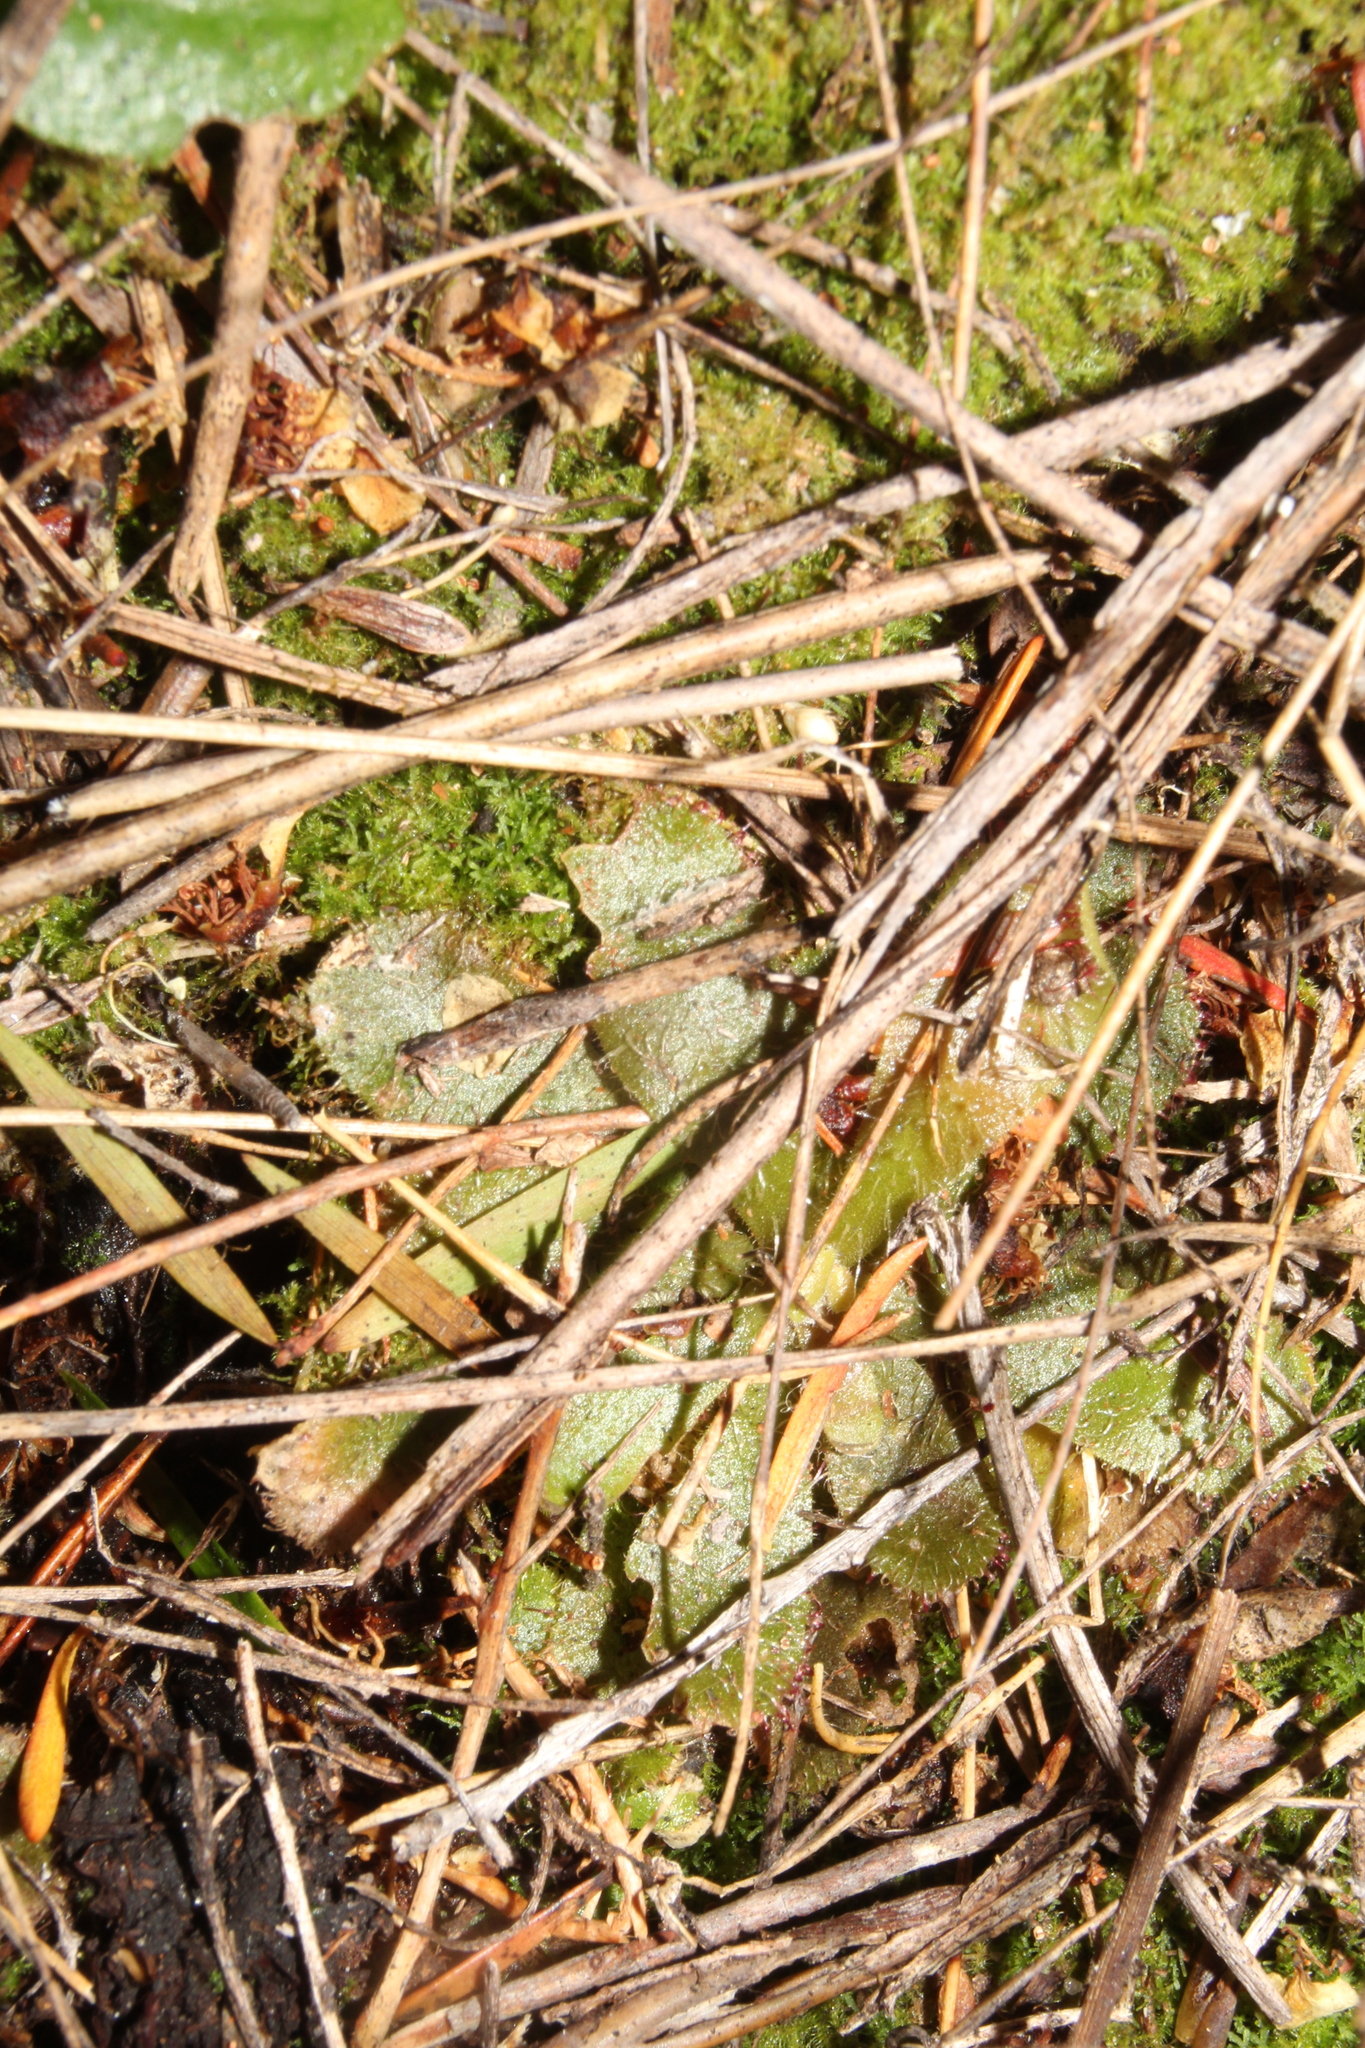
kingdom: Plantae
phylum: Tracheophyta
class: Magnoliopsida
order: Caryophyllales
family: Droseraceae
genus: Drosera
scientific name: Drosera hamiltonii
